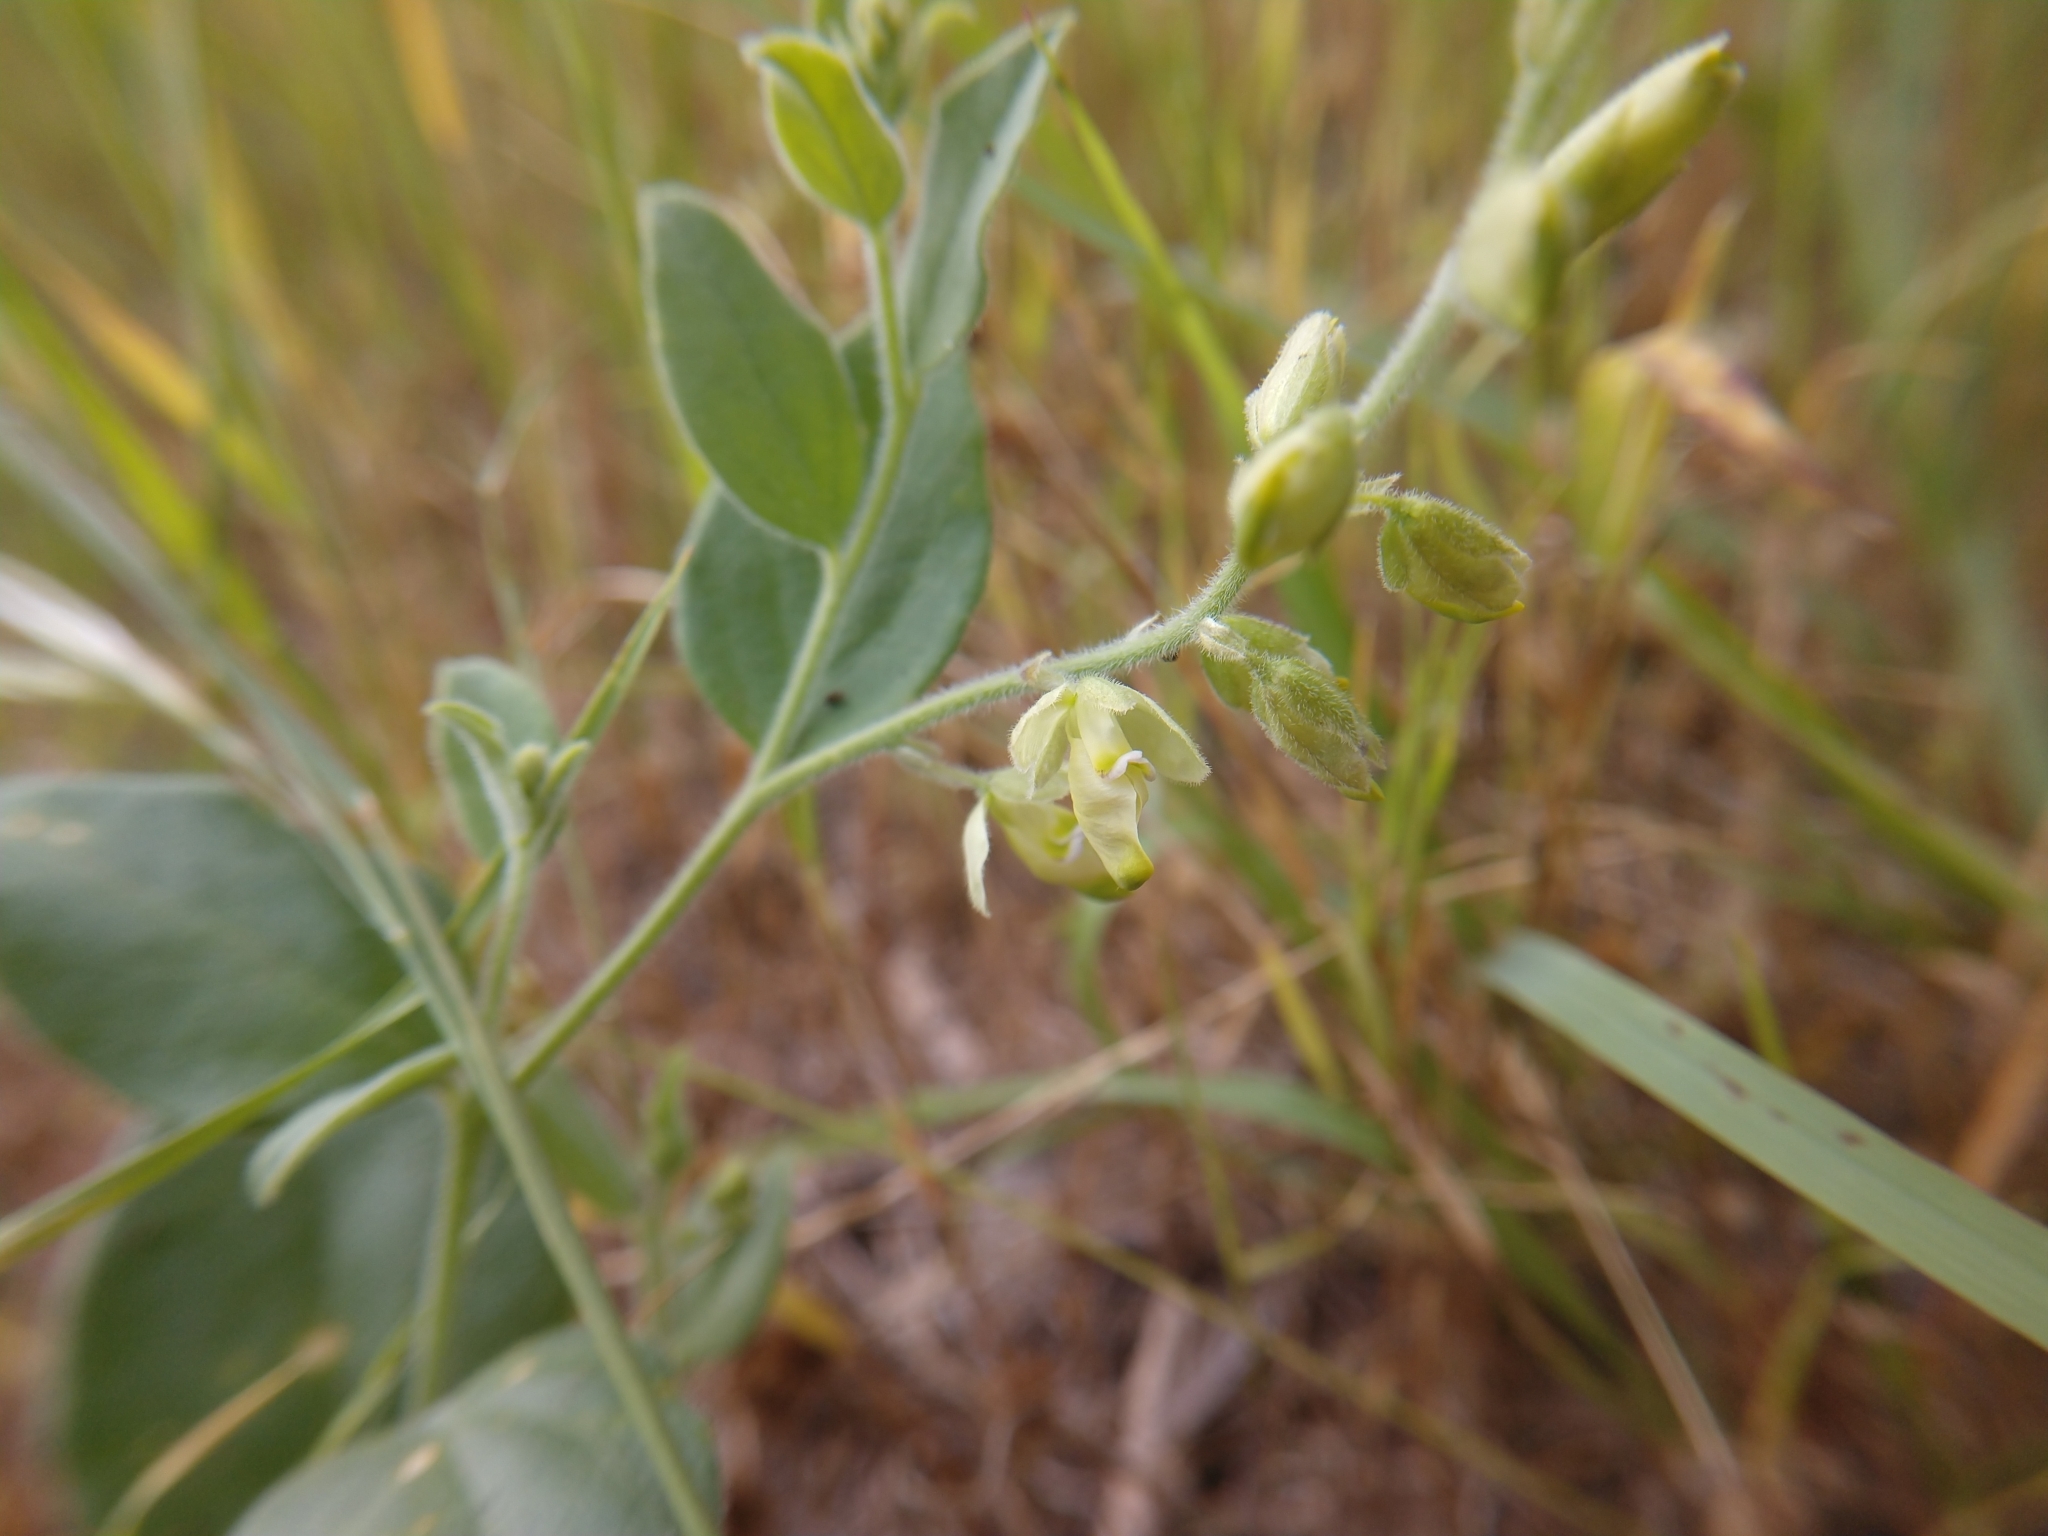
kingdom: Plantae
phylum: Tracheophyta
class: Magnoliopsida
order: Fabales
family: Polygalaceae
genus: Hebecarpa
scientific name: Hebecarpa ovatifolia
